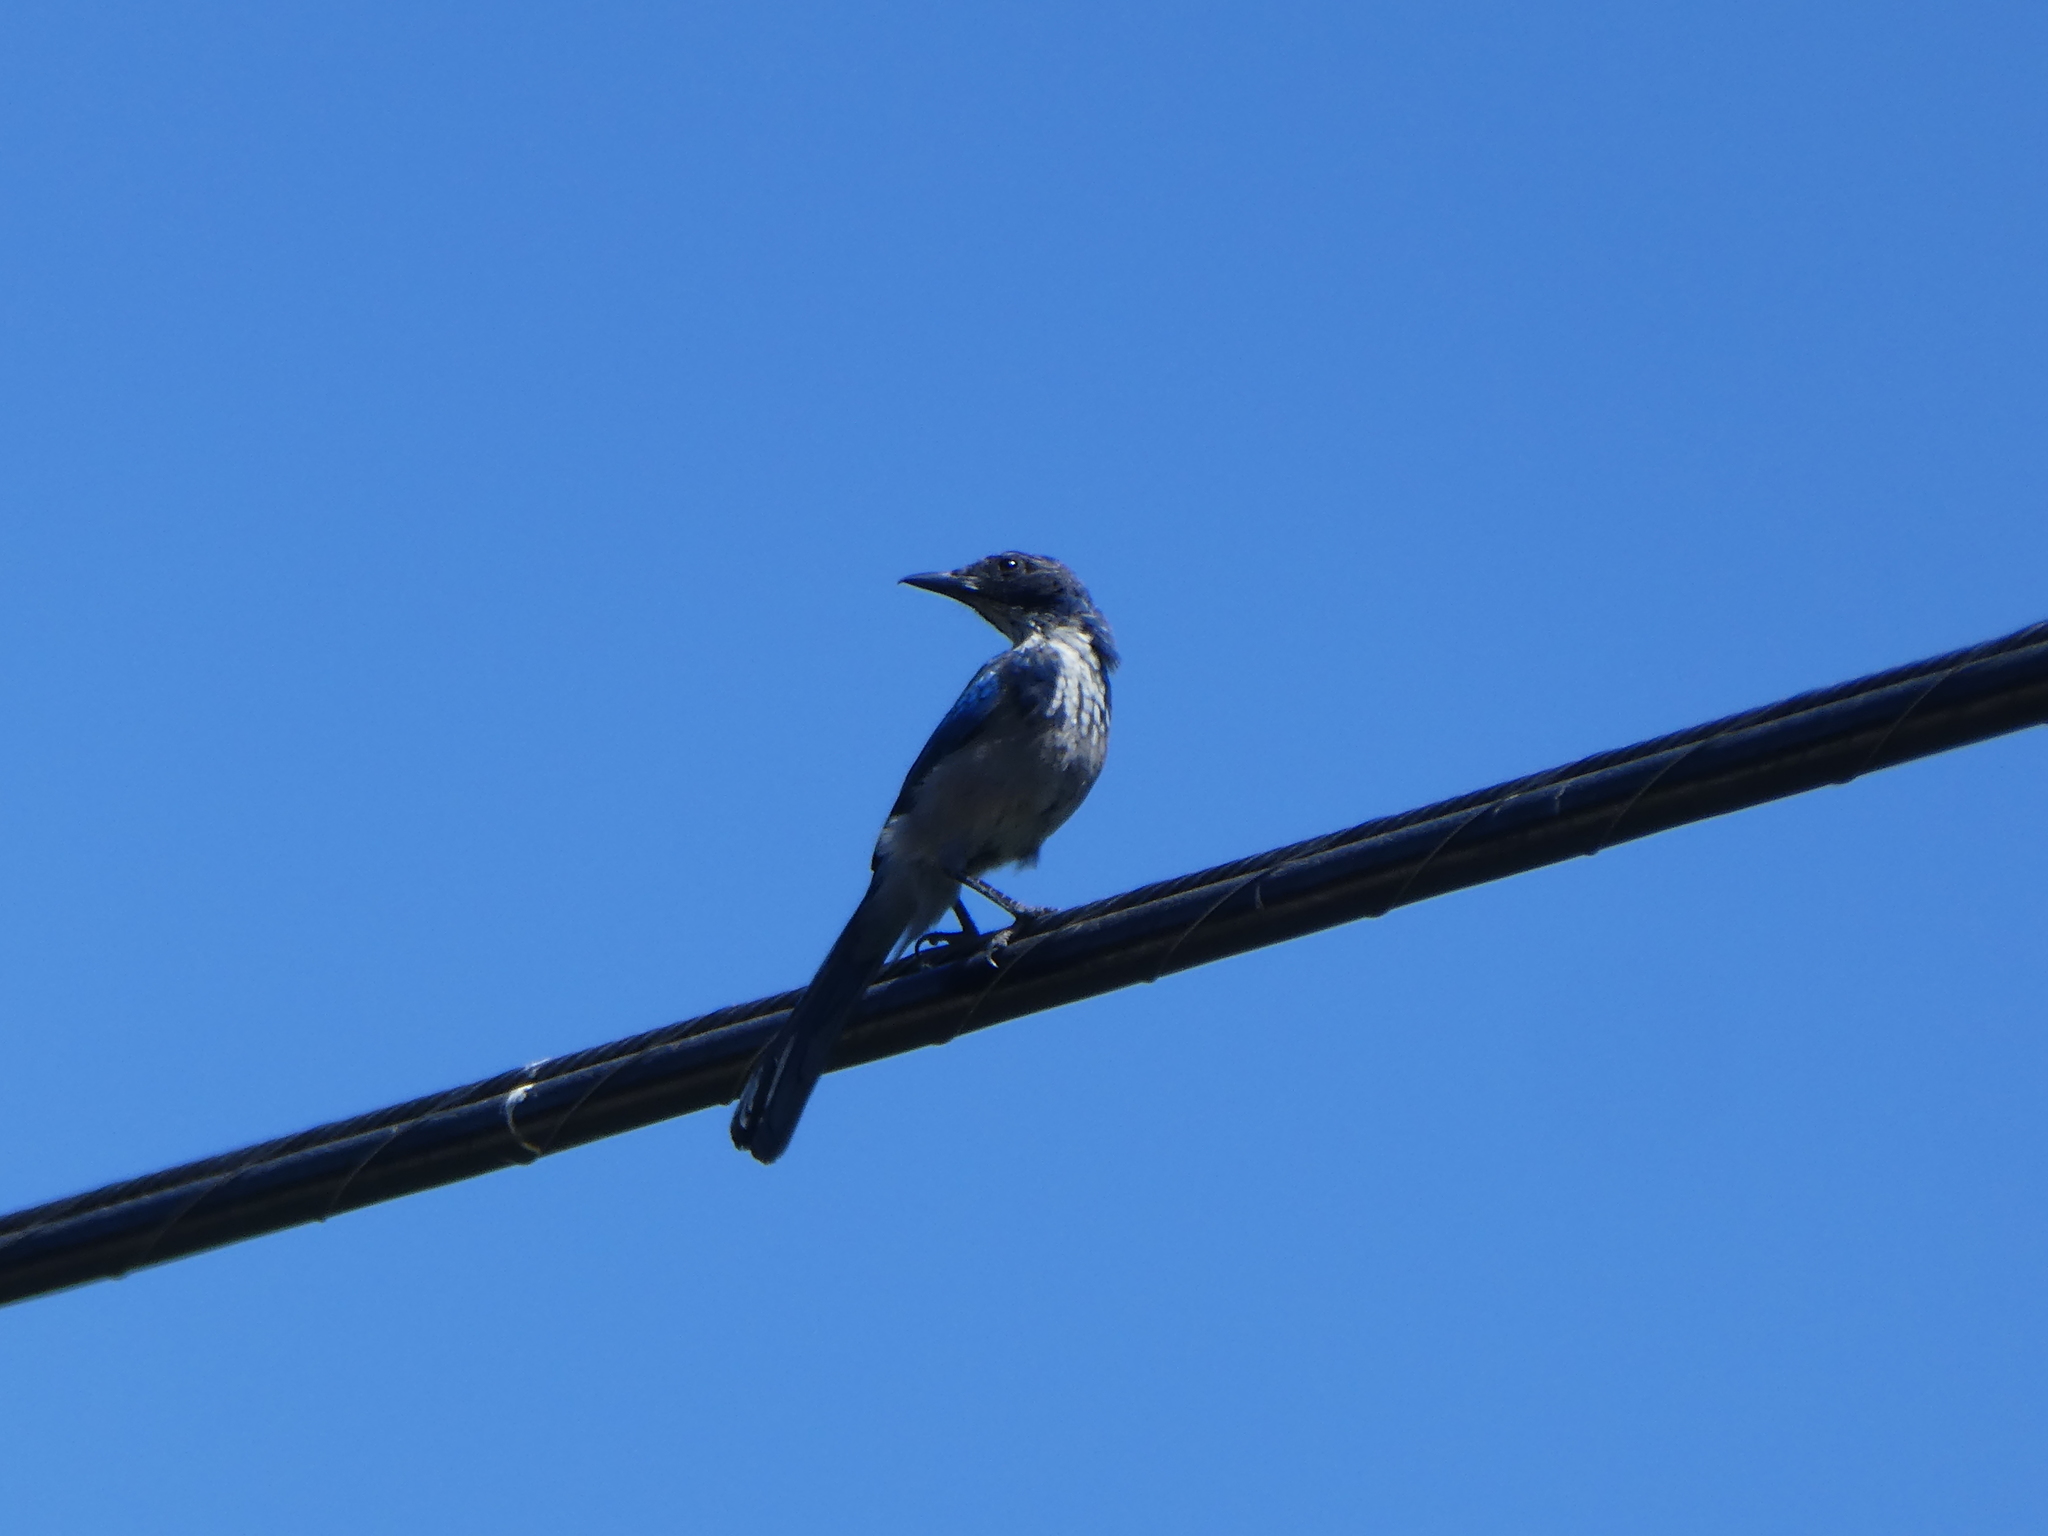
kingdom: Animalia
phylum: Chordata
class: Aves
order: Passeriformes
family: Corvidae
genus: Aphelocoma
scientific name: Aphelocoma californica
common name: California scrub-jay
